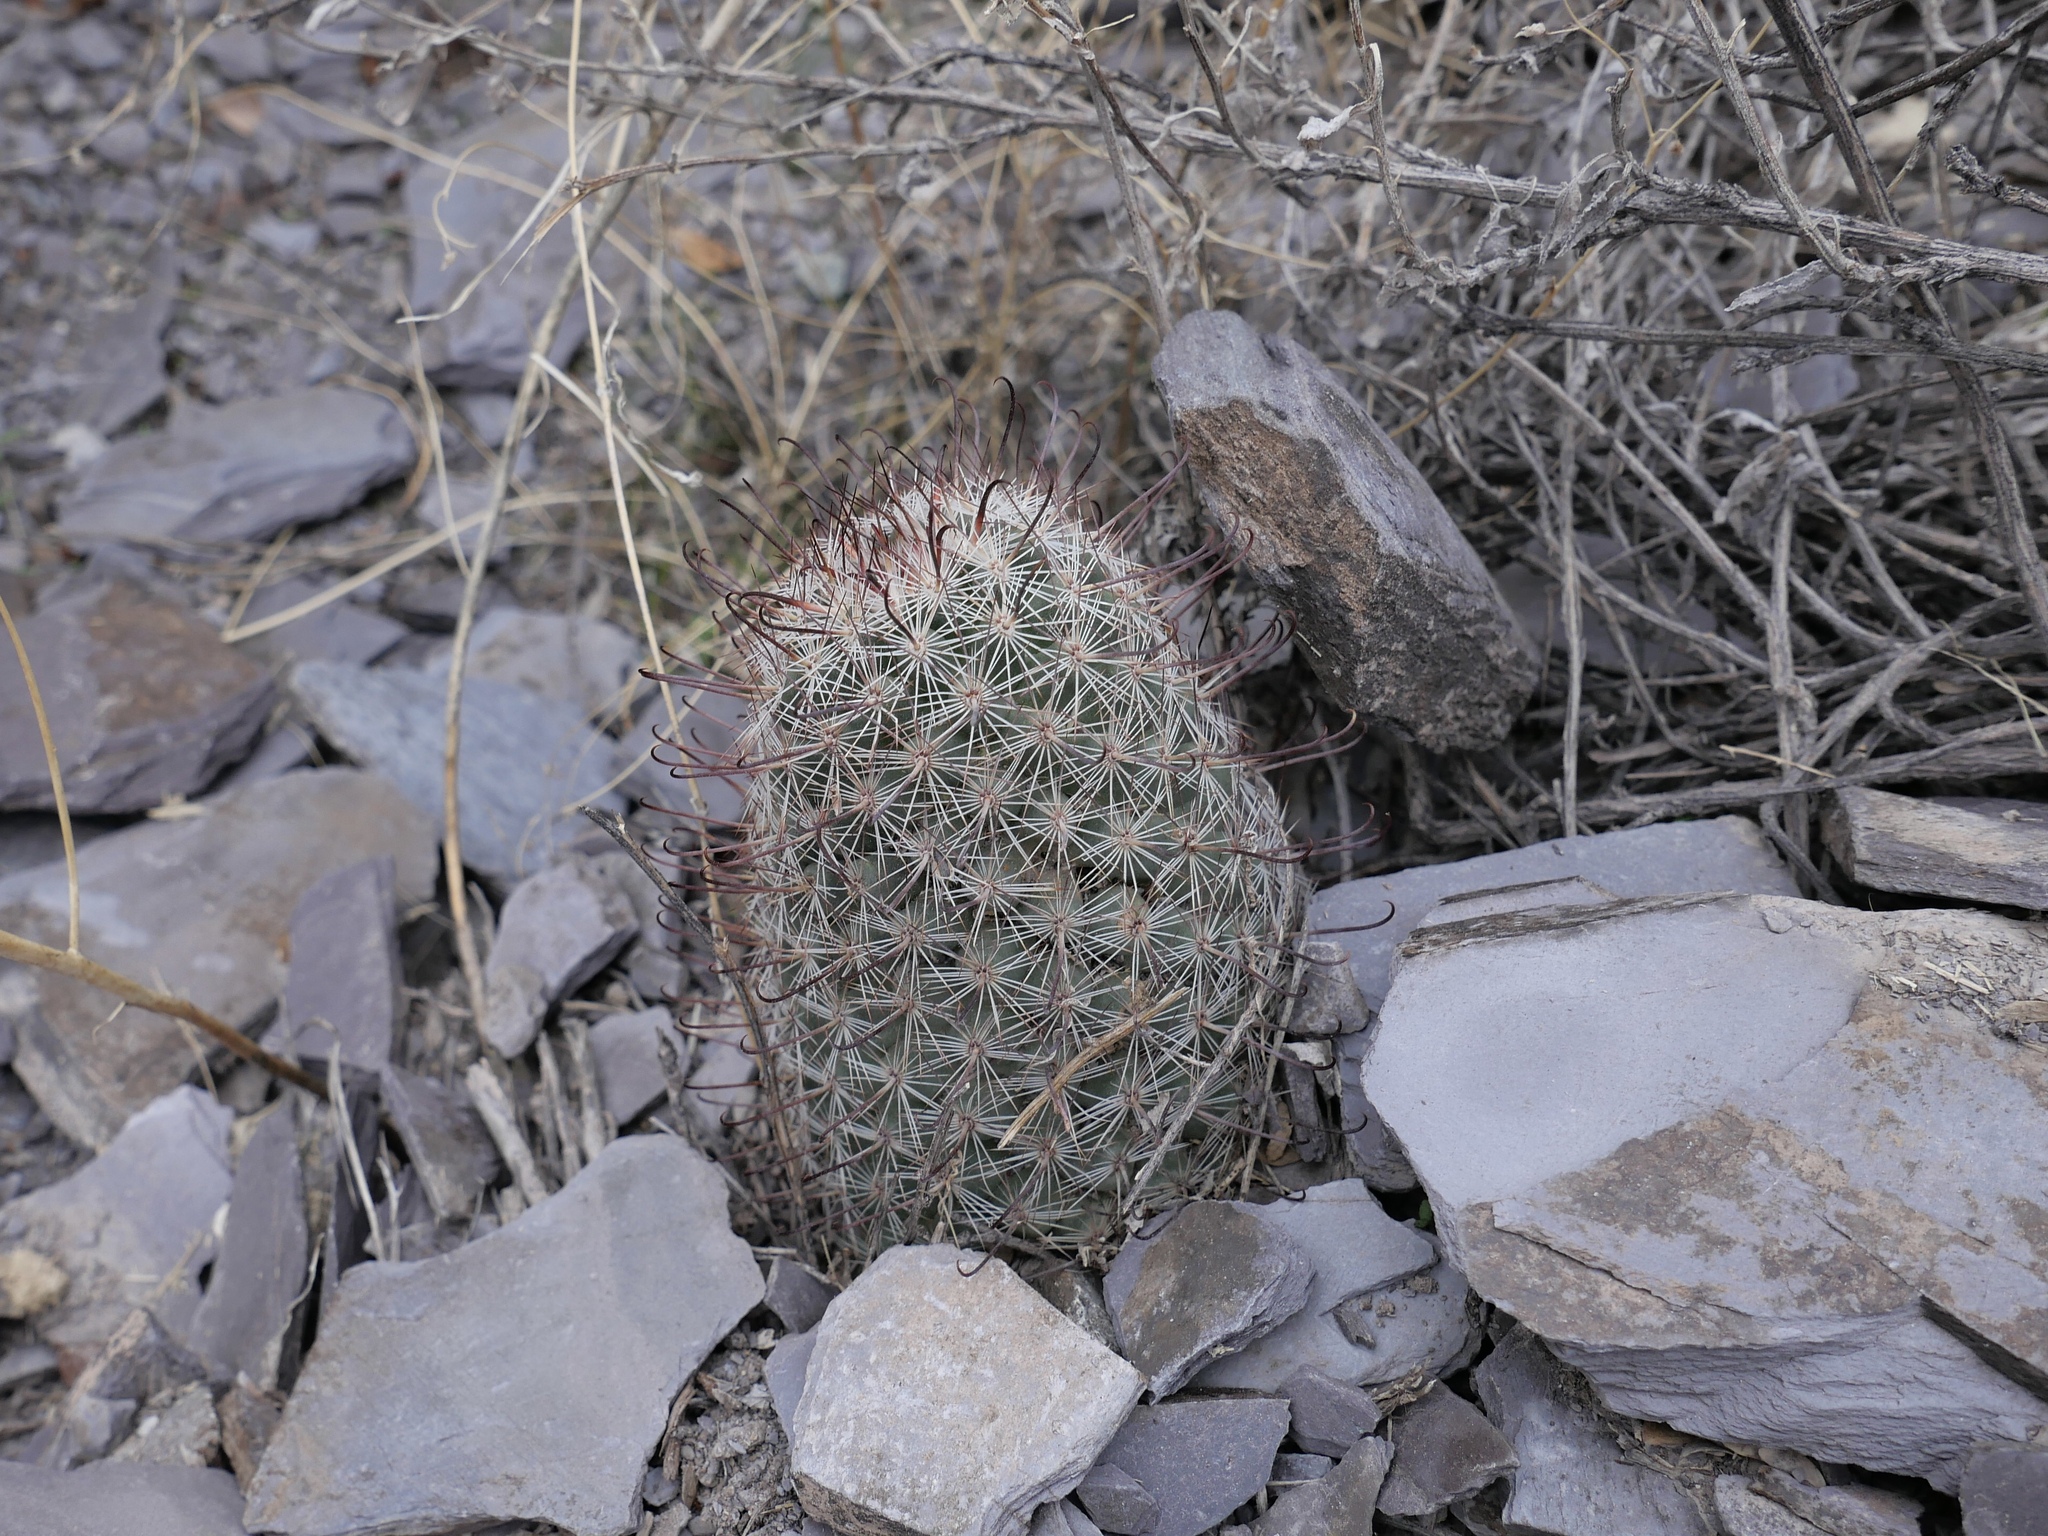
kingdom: Plantae
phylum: Tracheophyta
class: Magnoliopsida
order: Caryophyllales
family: Cactaceae
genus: Cochemiea
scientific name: Cochemiea grahamii
